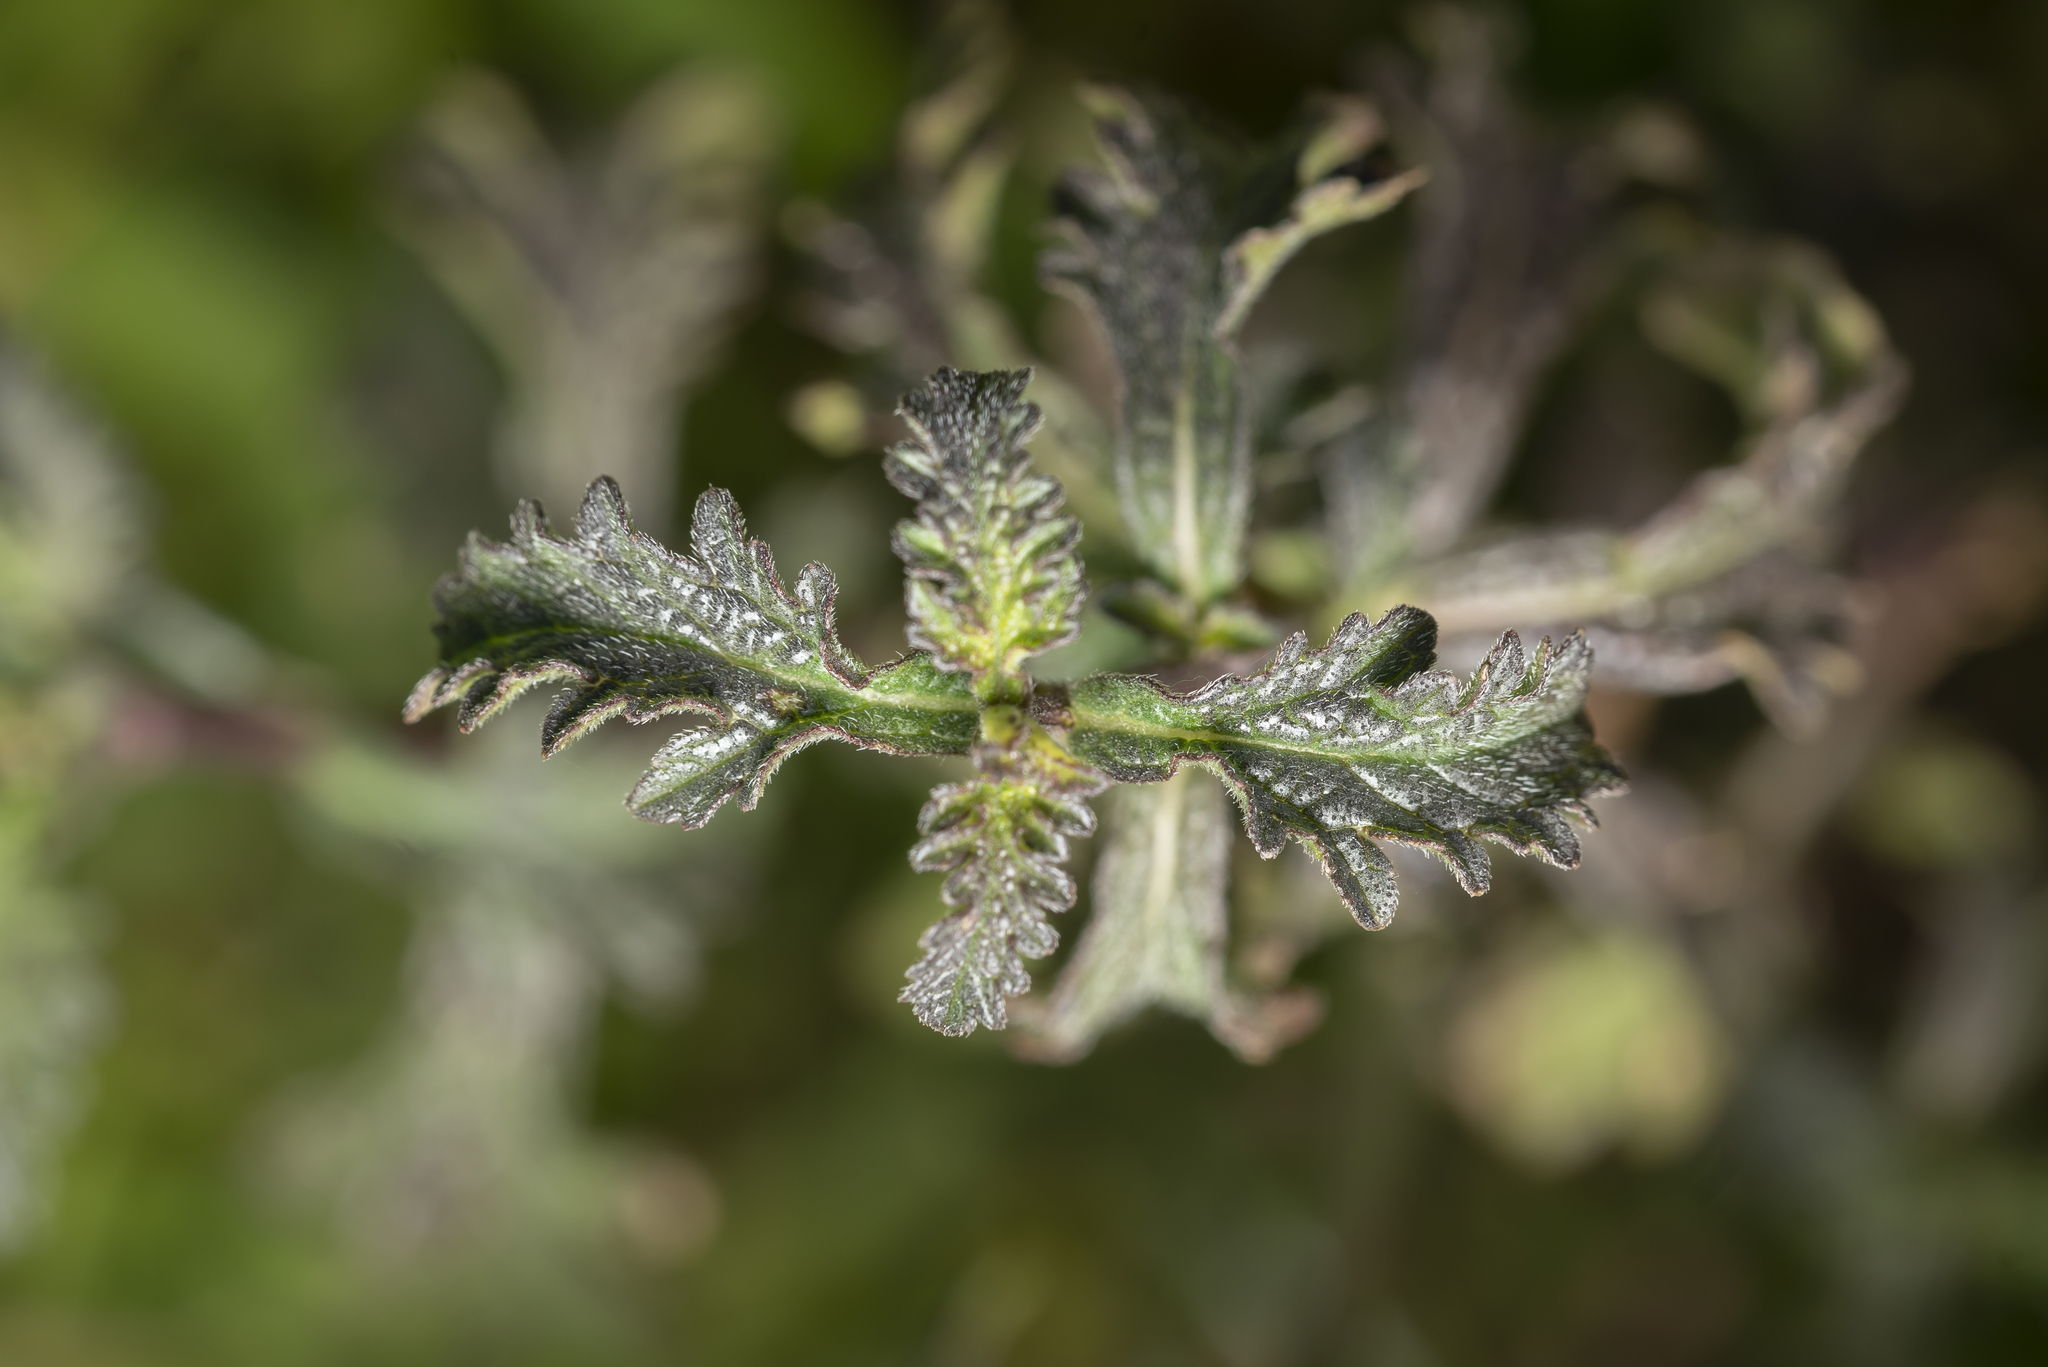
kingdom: Plantae
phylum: Tracheophyta
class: Magnoliopsida
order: Lamiales
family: Verbenaceae
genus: Verbena
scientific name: Verbena officinalis
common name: Vervain
